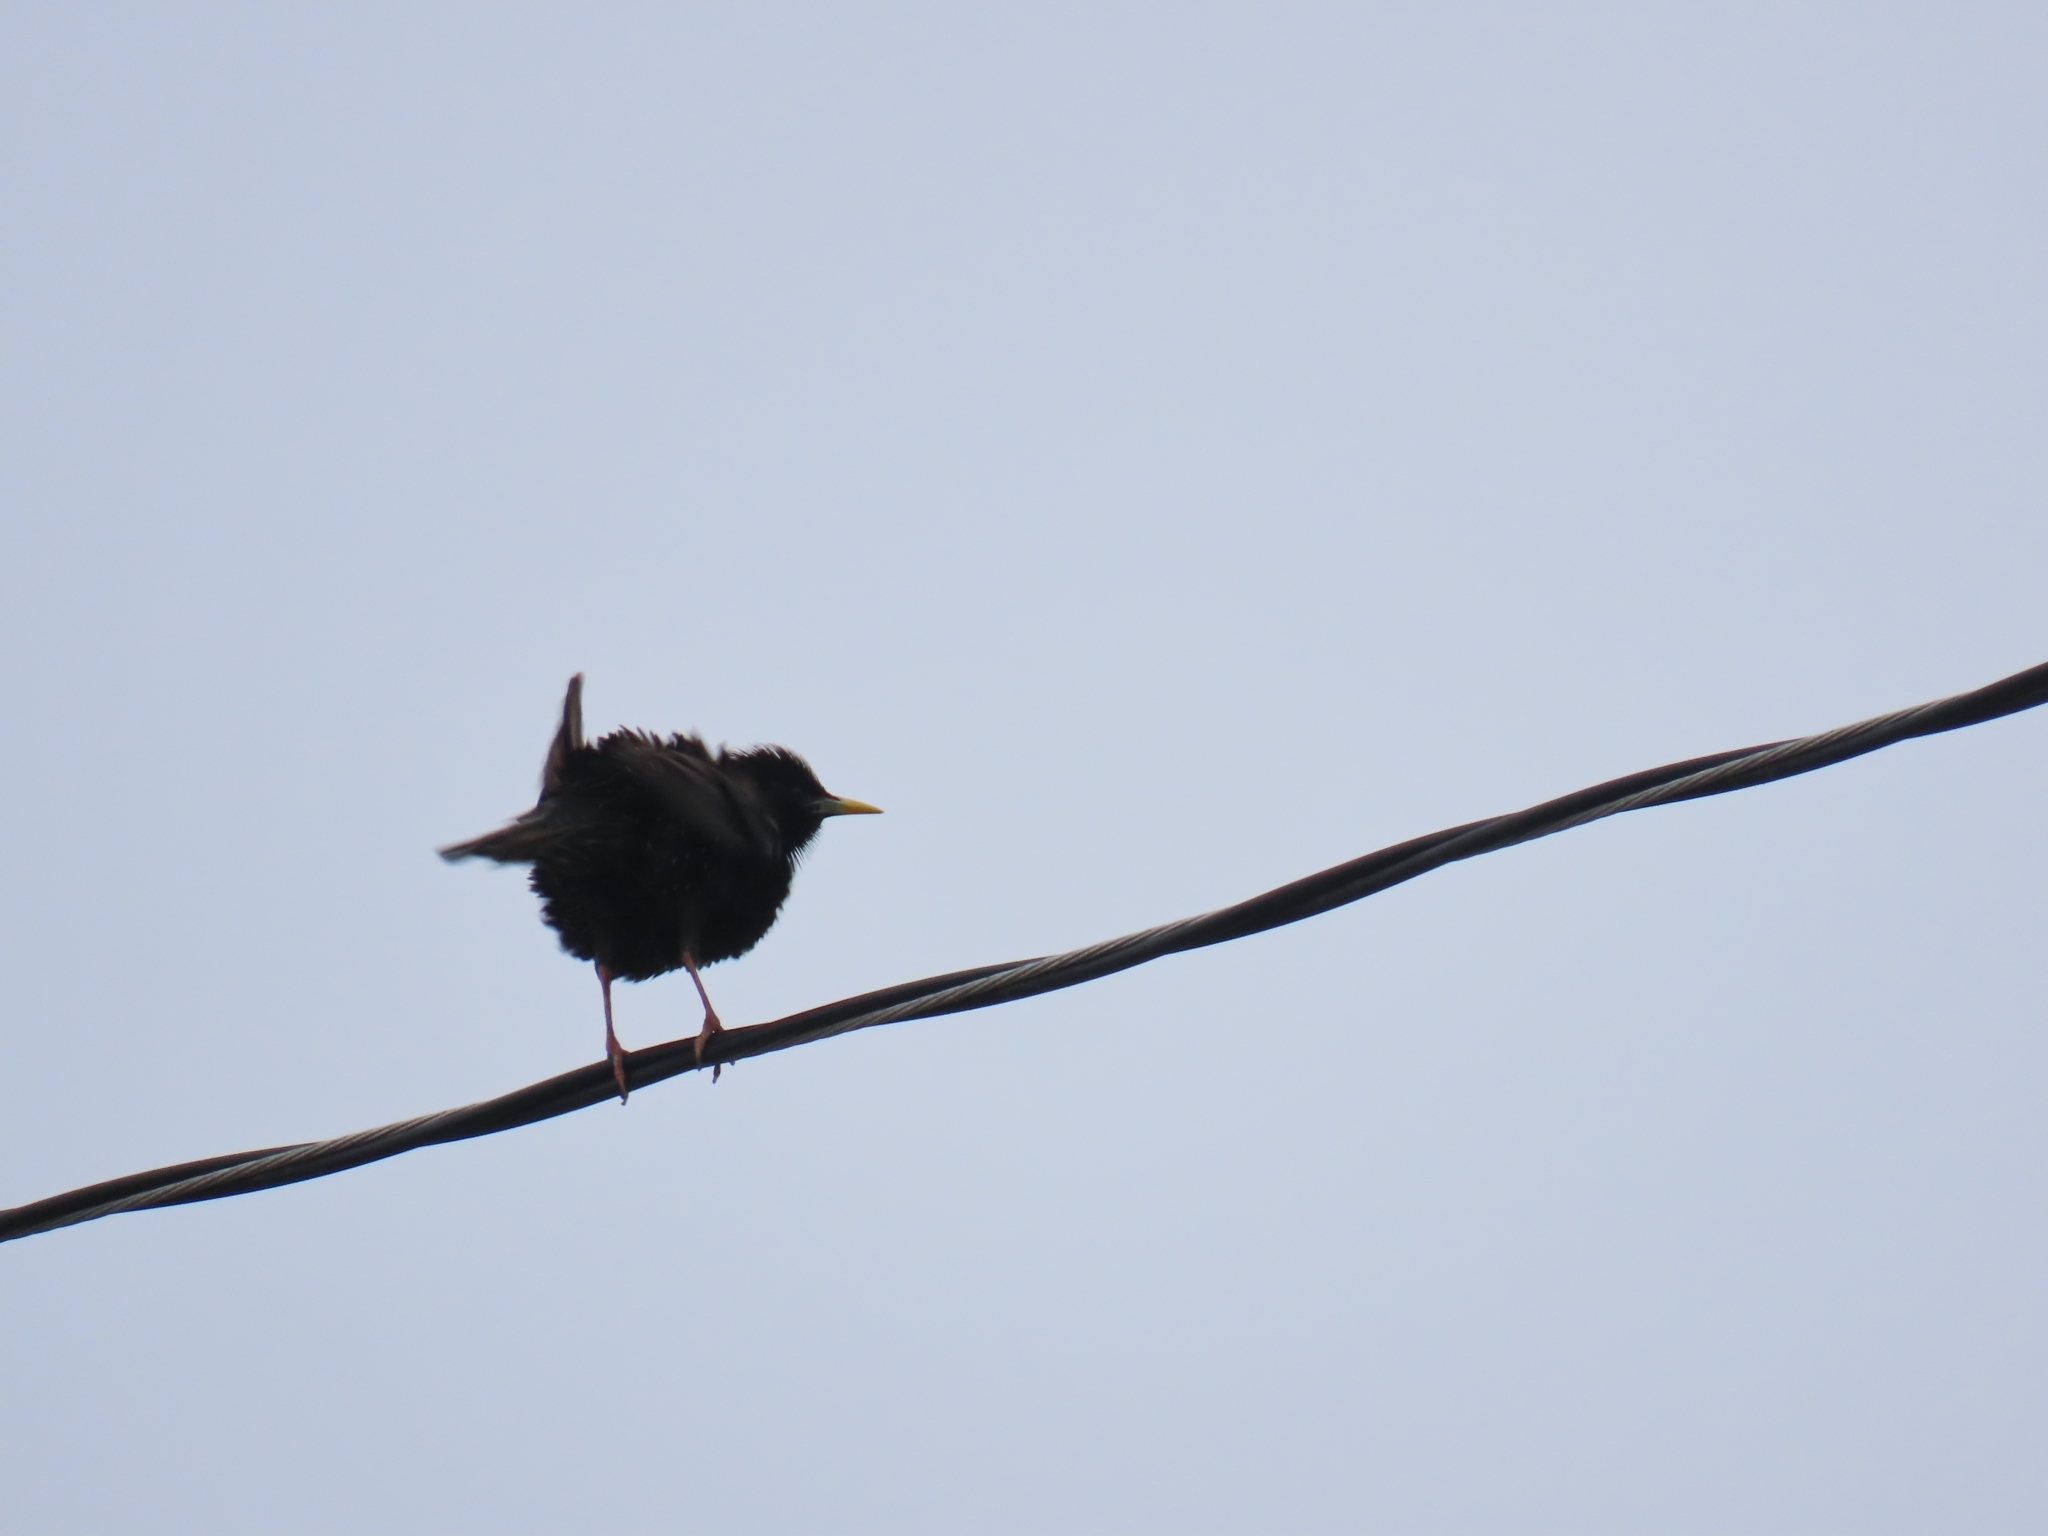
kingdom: Animalia
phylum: Chordata
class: Aves
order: Passeriformes
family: Sturnidae
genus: Sturnus
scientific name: Sturnus vulgaris
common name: Common starling
